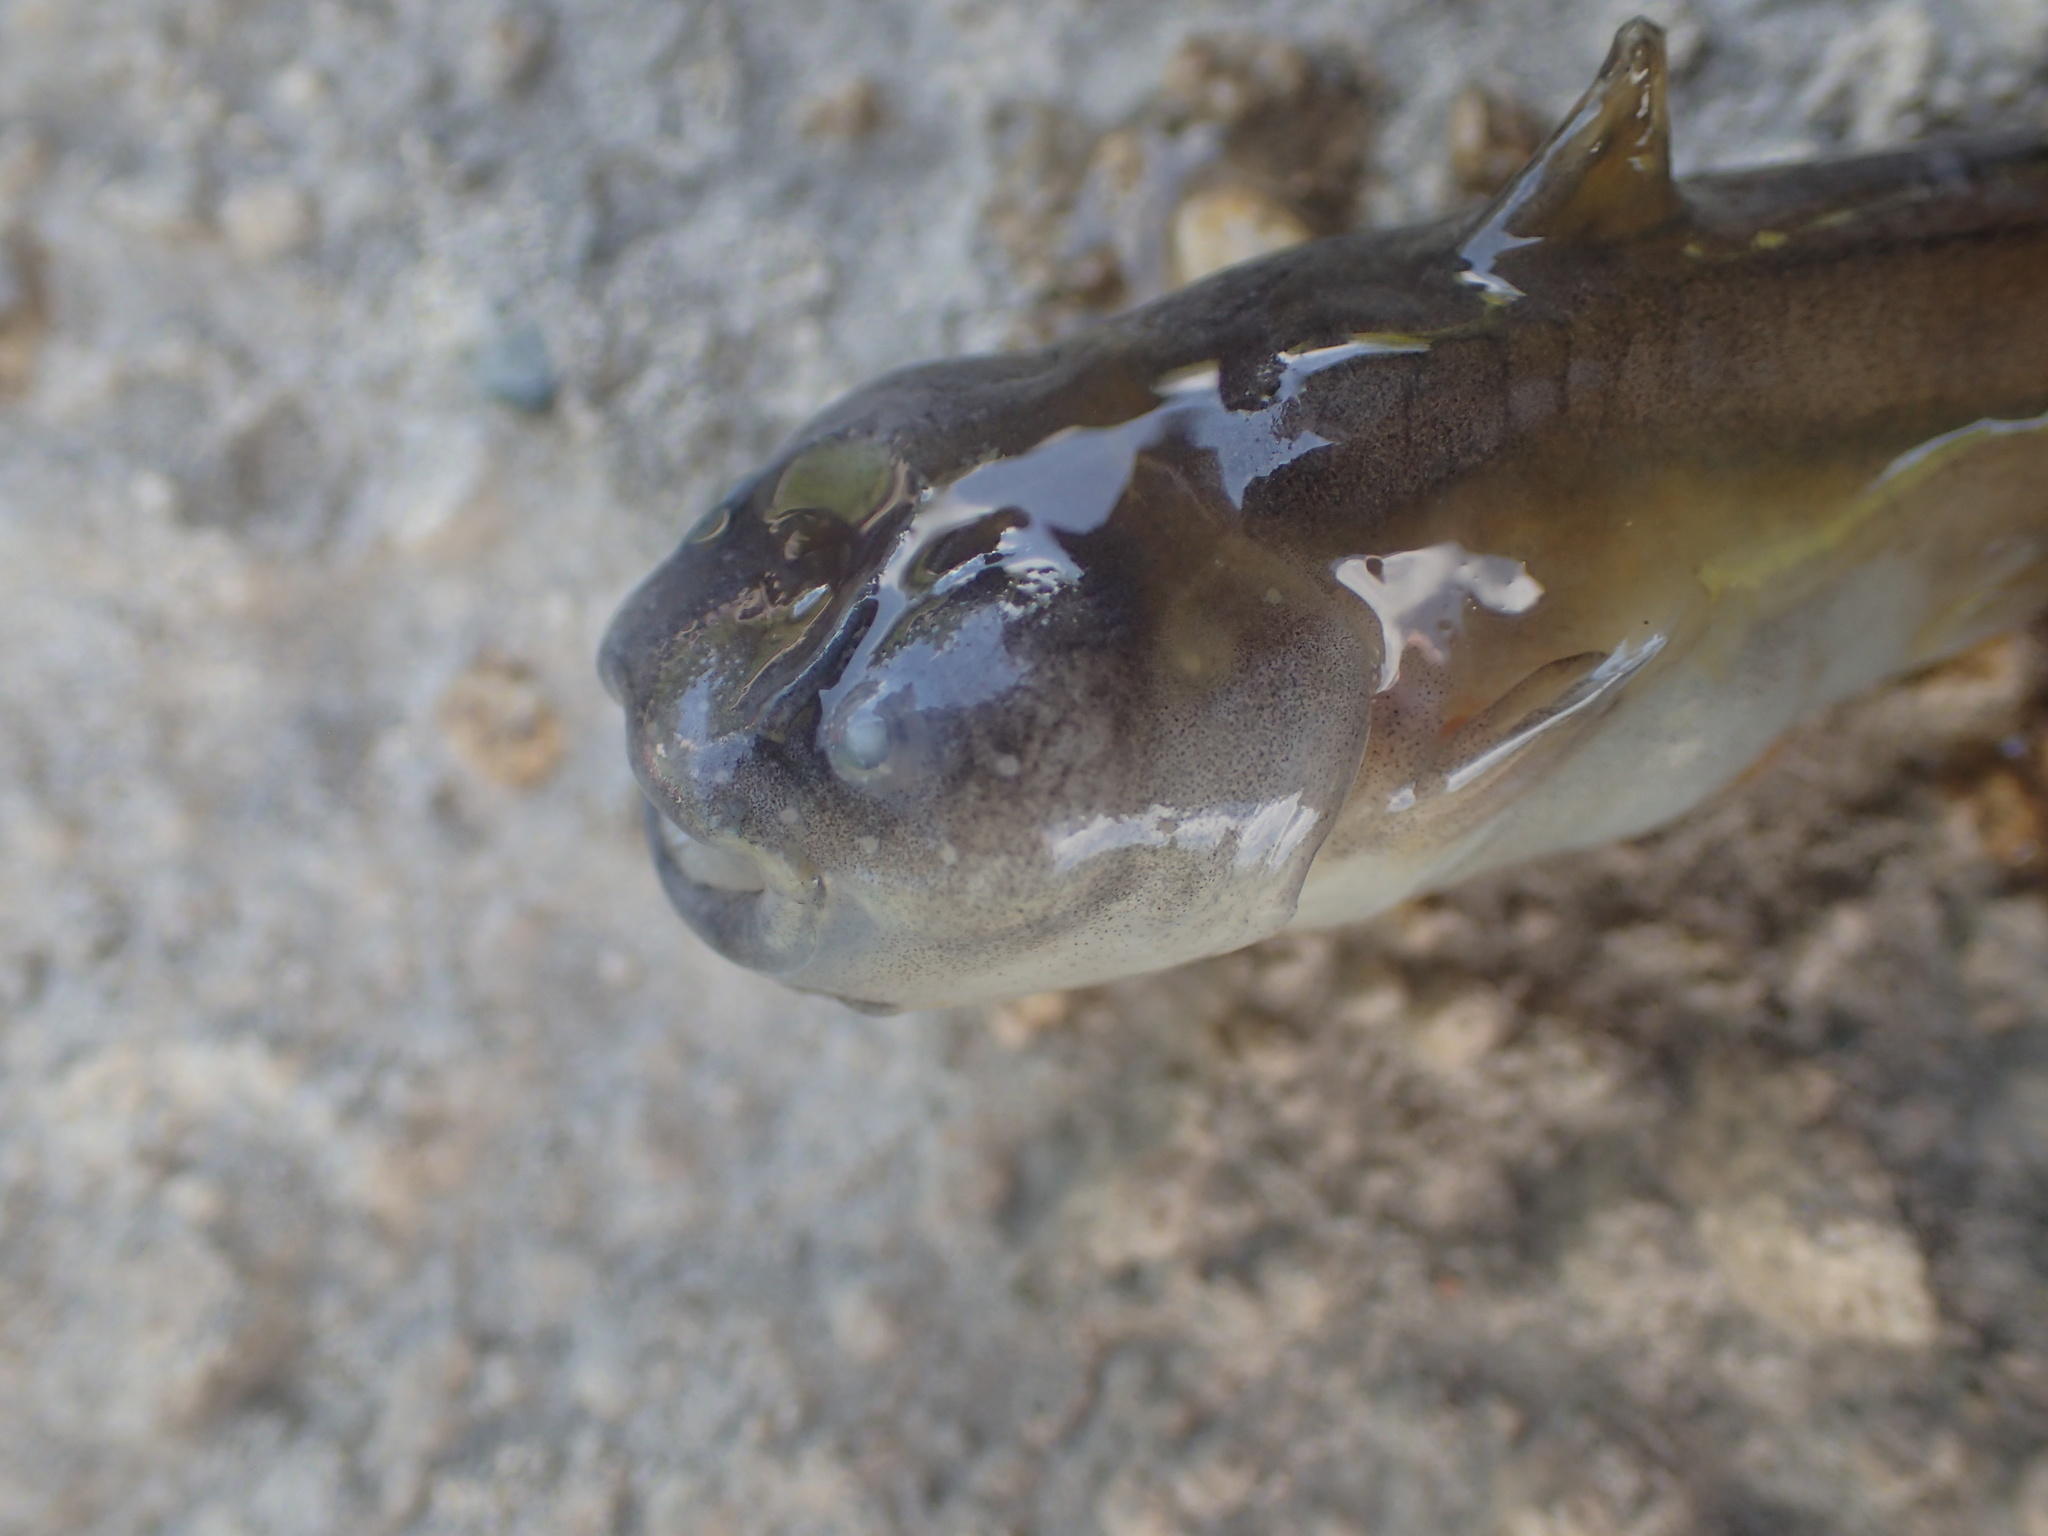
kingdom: Animalia
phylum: Chordata
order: Siluriformes
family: Ictaluridae
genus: Noturus
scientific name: Noturus gyrinus
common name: Tadpole madtom
